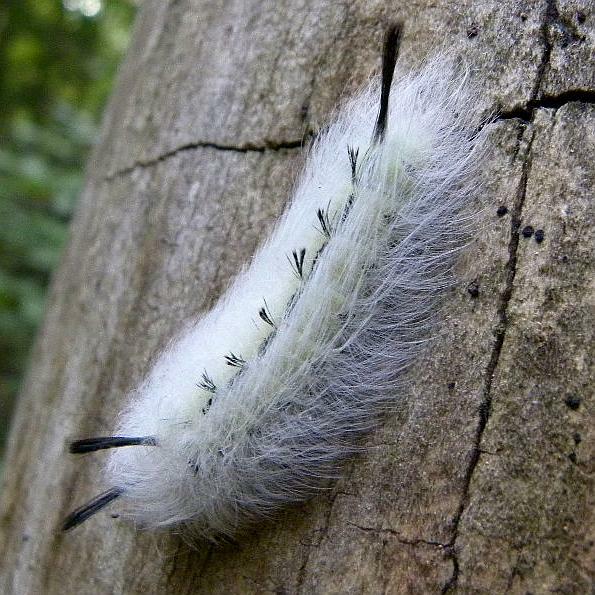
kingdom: Animalia
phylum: Arthropoda
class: Insecta
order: Lepidoptera
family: Apatelodidae
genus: Hygrochroa
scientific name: Hygrochroa Apatelodes torrefacta
